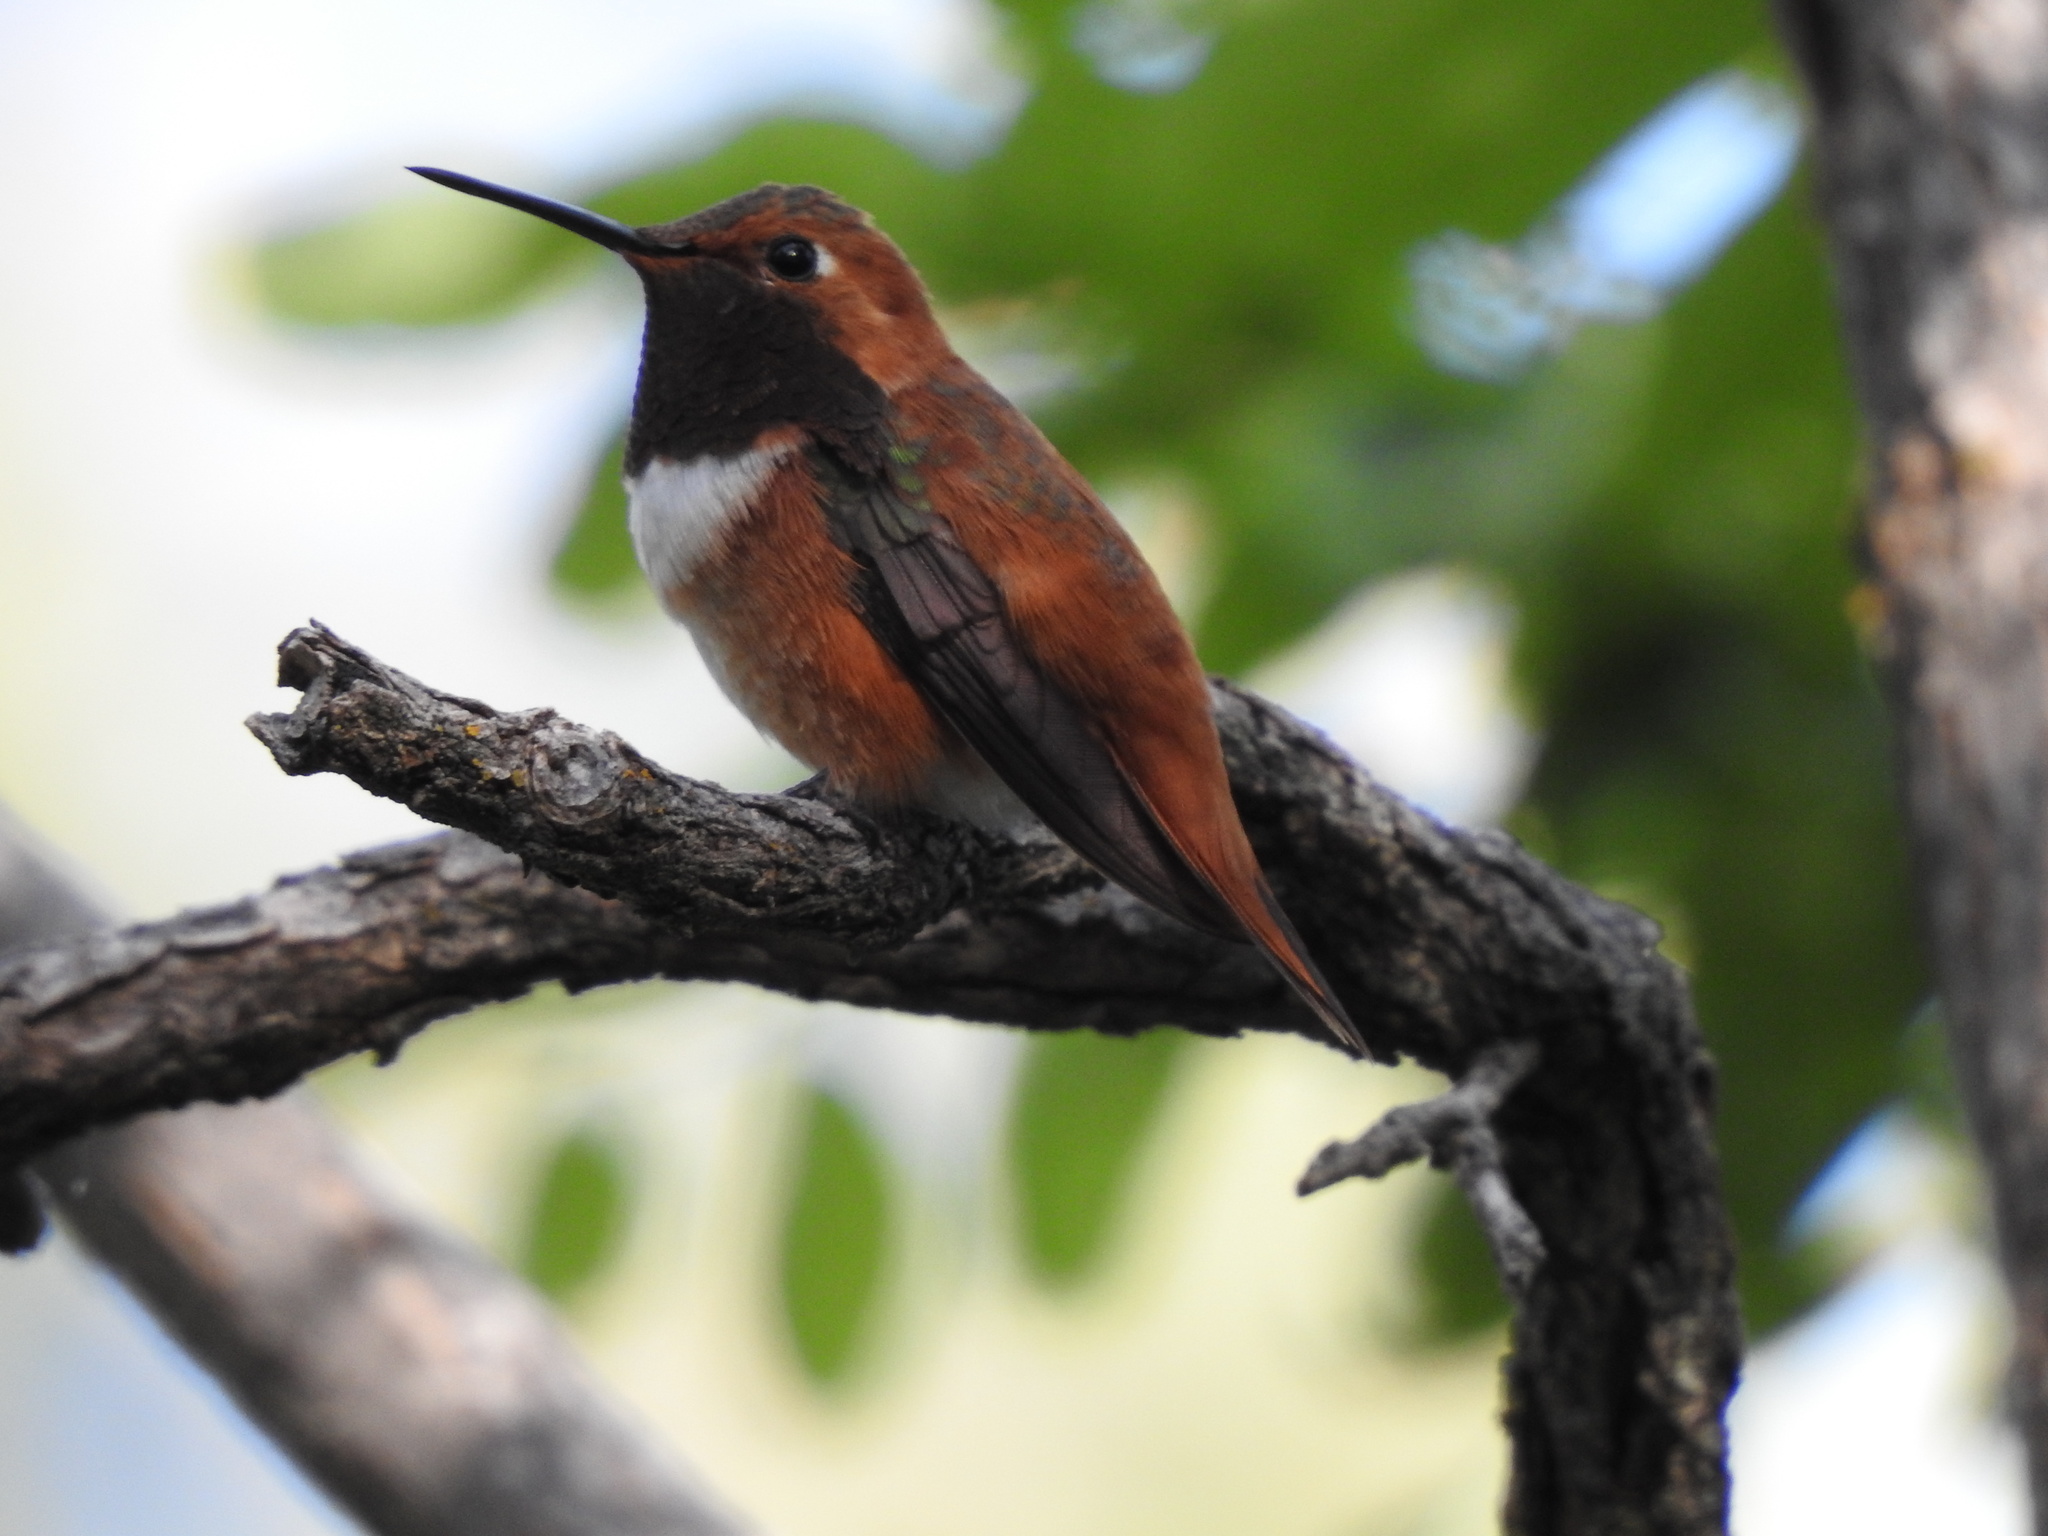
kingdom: Animalia
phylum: Chordata
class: Aves
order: Apodiformes
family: Trochilidae
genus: Selasphorus
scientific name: Selasphorus rufus
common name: Rufous hummingbird
